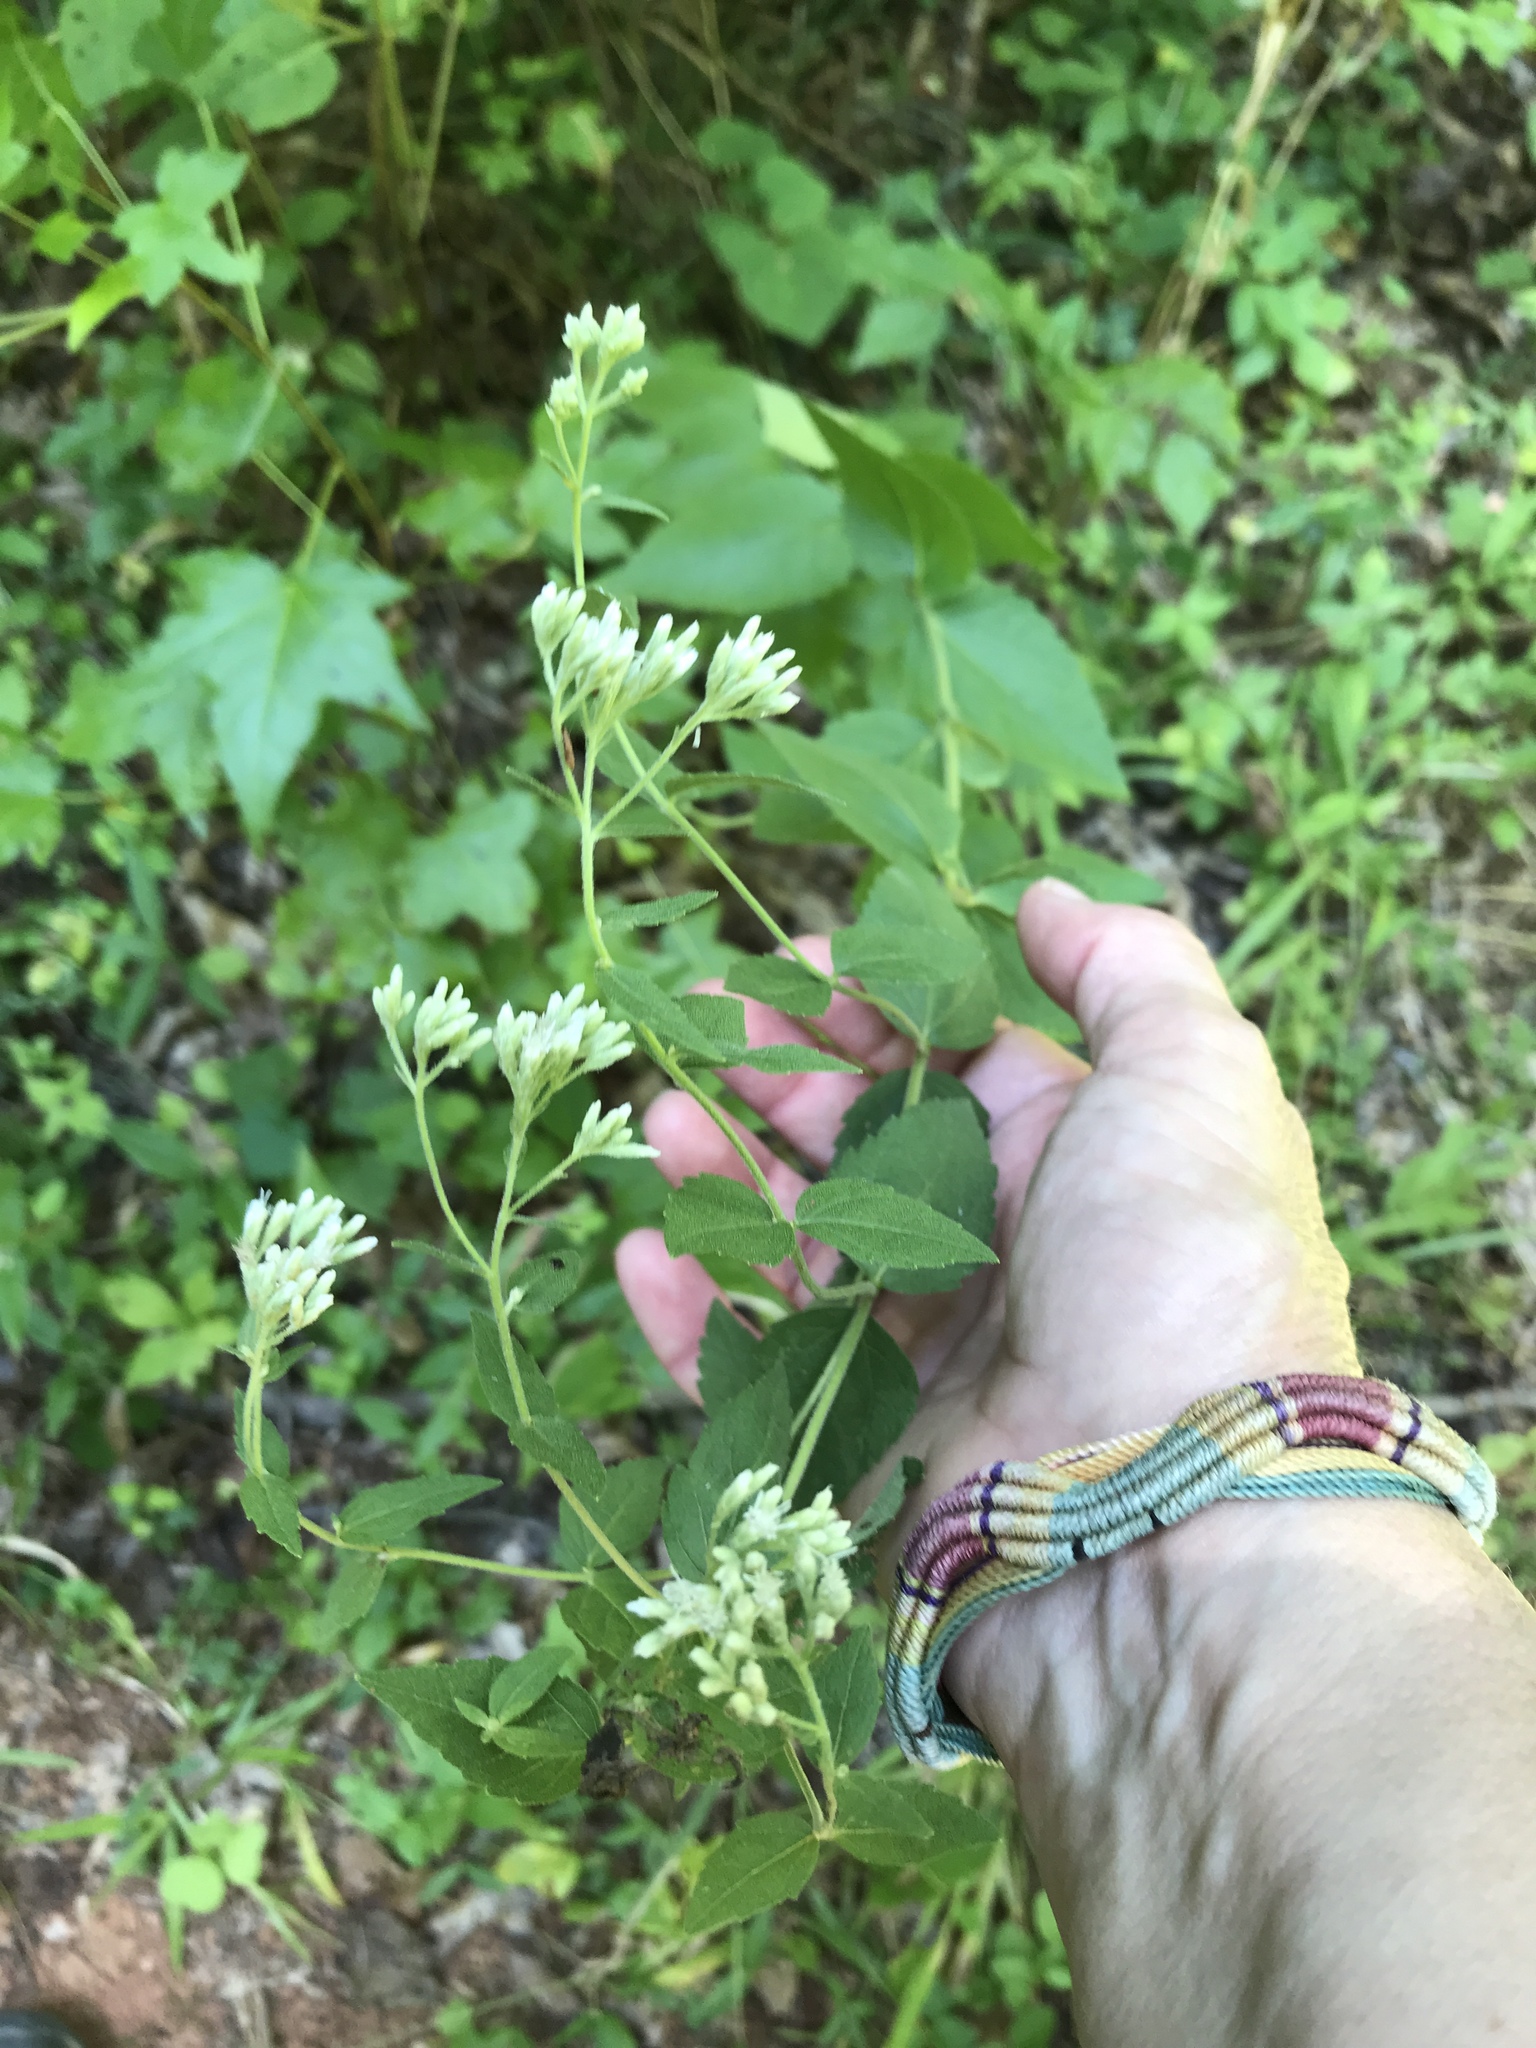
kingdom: Plantae
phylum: Tracheophyta
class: Magnoliopsida
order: Asterales
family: Asteraceae
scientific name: Asteraceae
